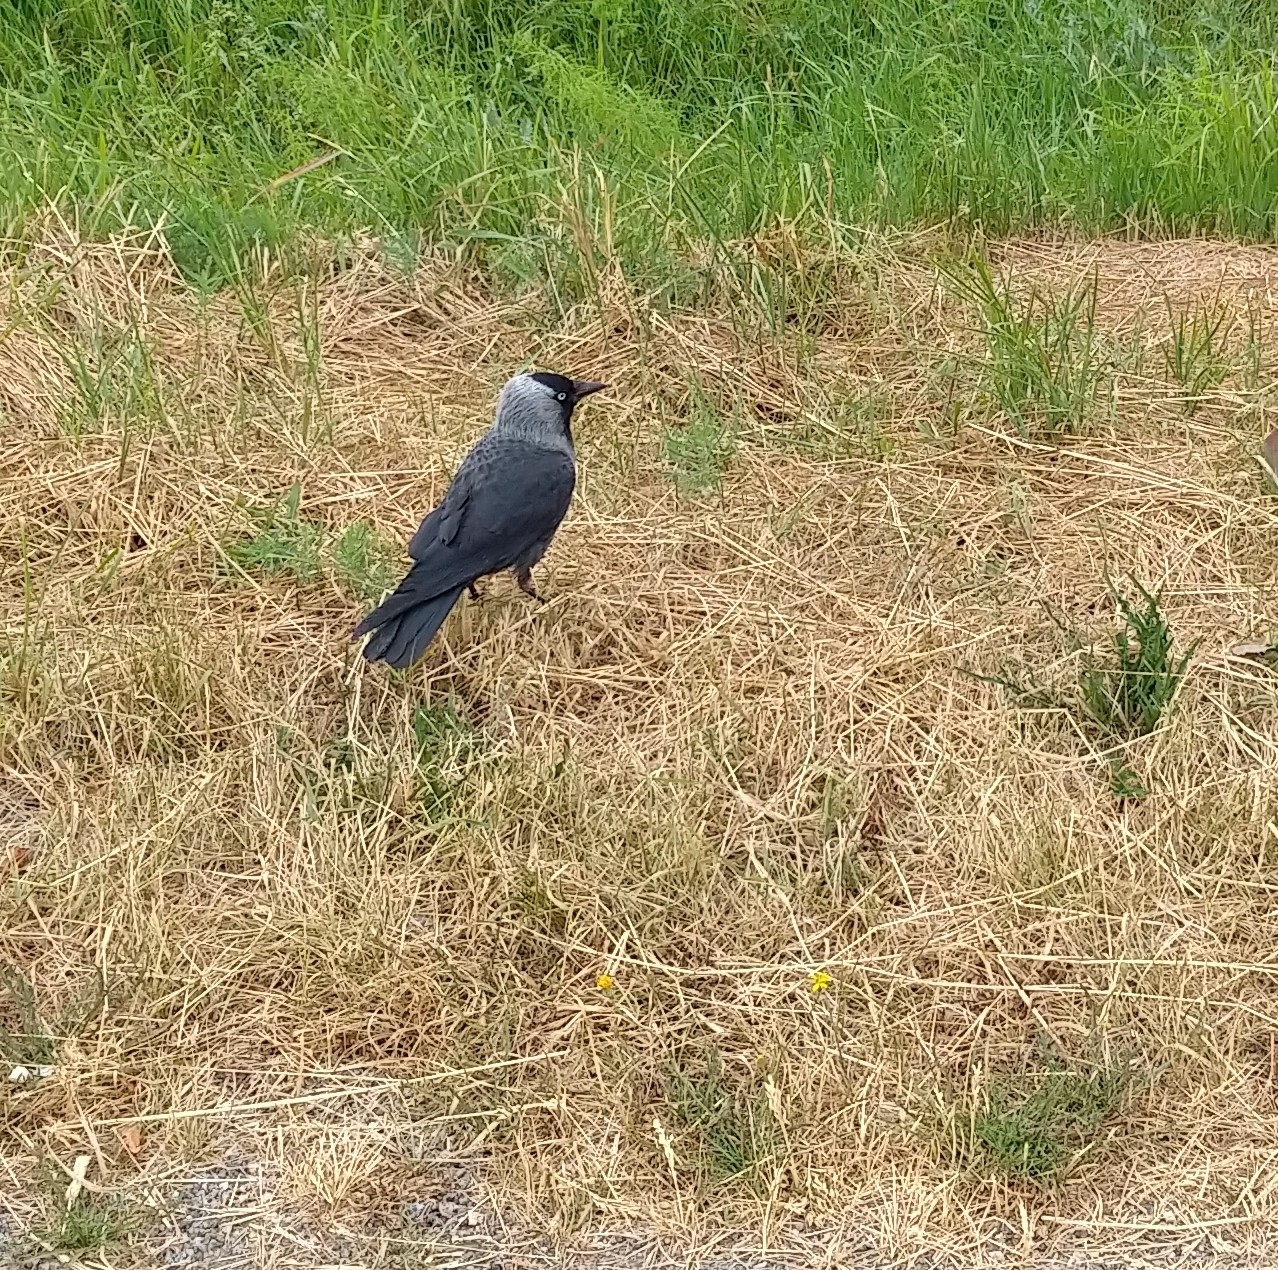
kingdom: Animalia
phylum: Chordata
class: Aves
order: Passeriformes
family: Corvidae
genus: Coloeus
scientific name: Coloeus monedula
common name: Western jackdaw
